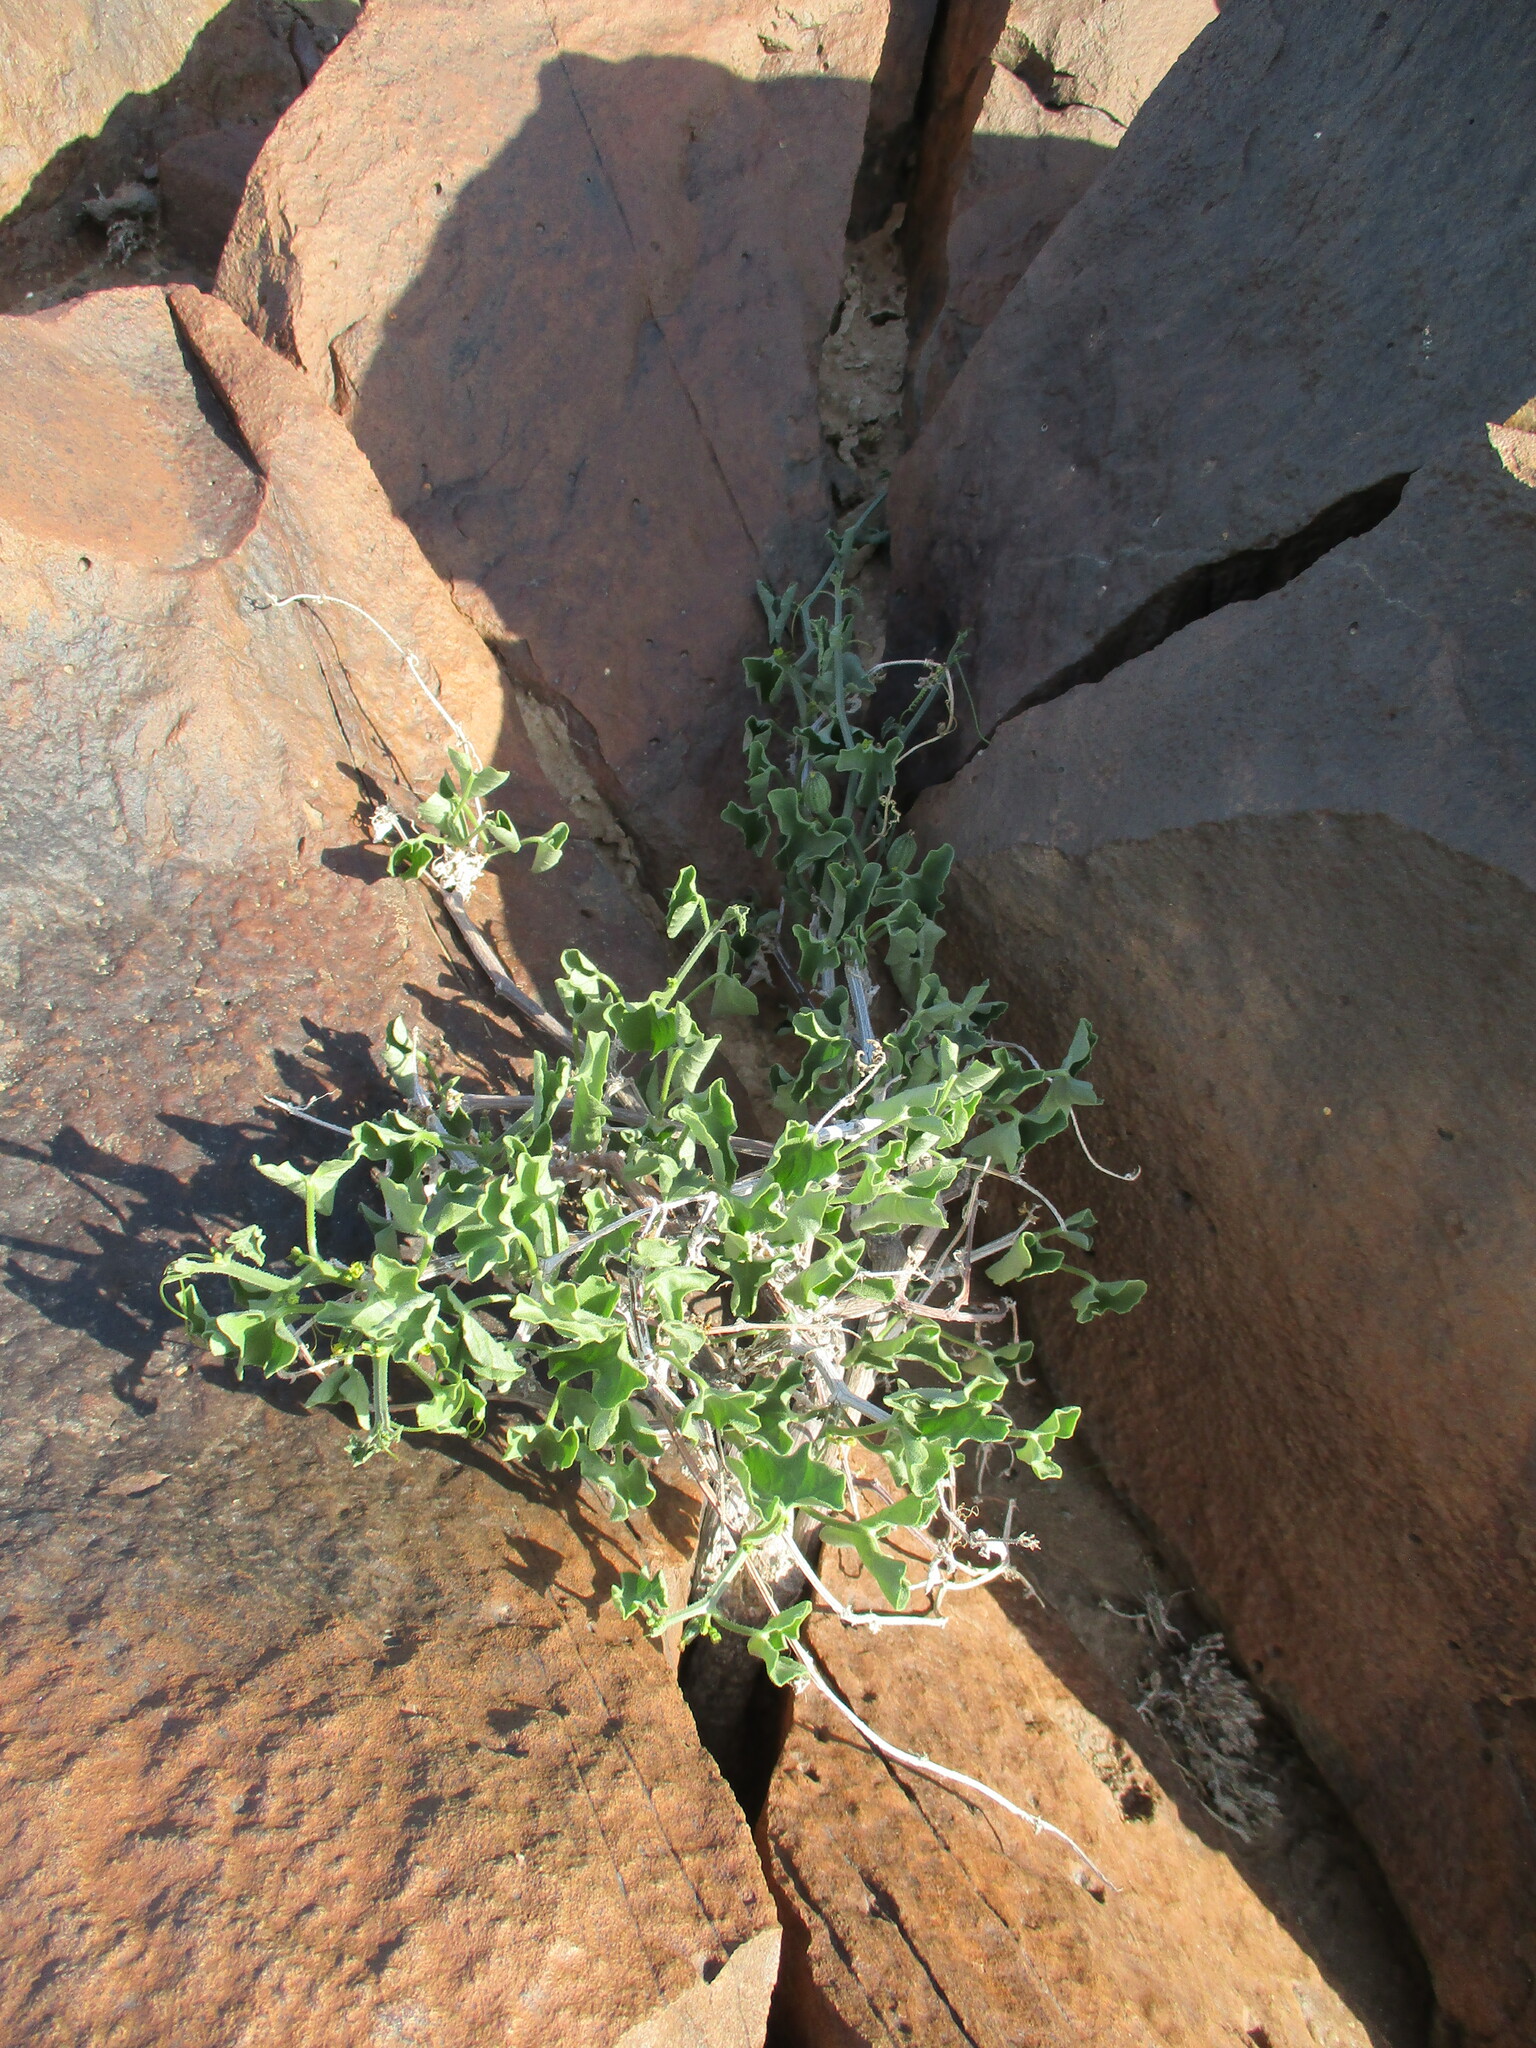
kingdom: Plantae
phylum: Tracheophyta
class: Magnoliopsida
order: Cucurbitales
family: Cucurbitaceae
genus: Kedrostis
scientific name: Kedrostis foetidissima
